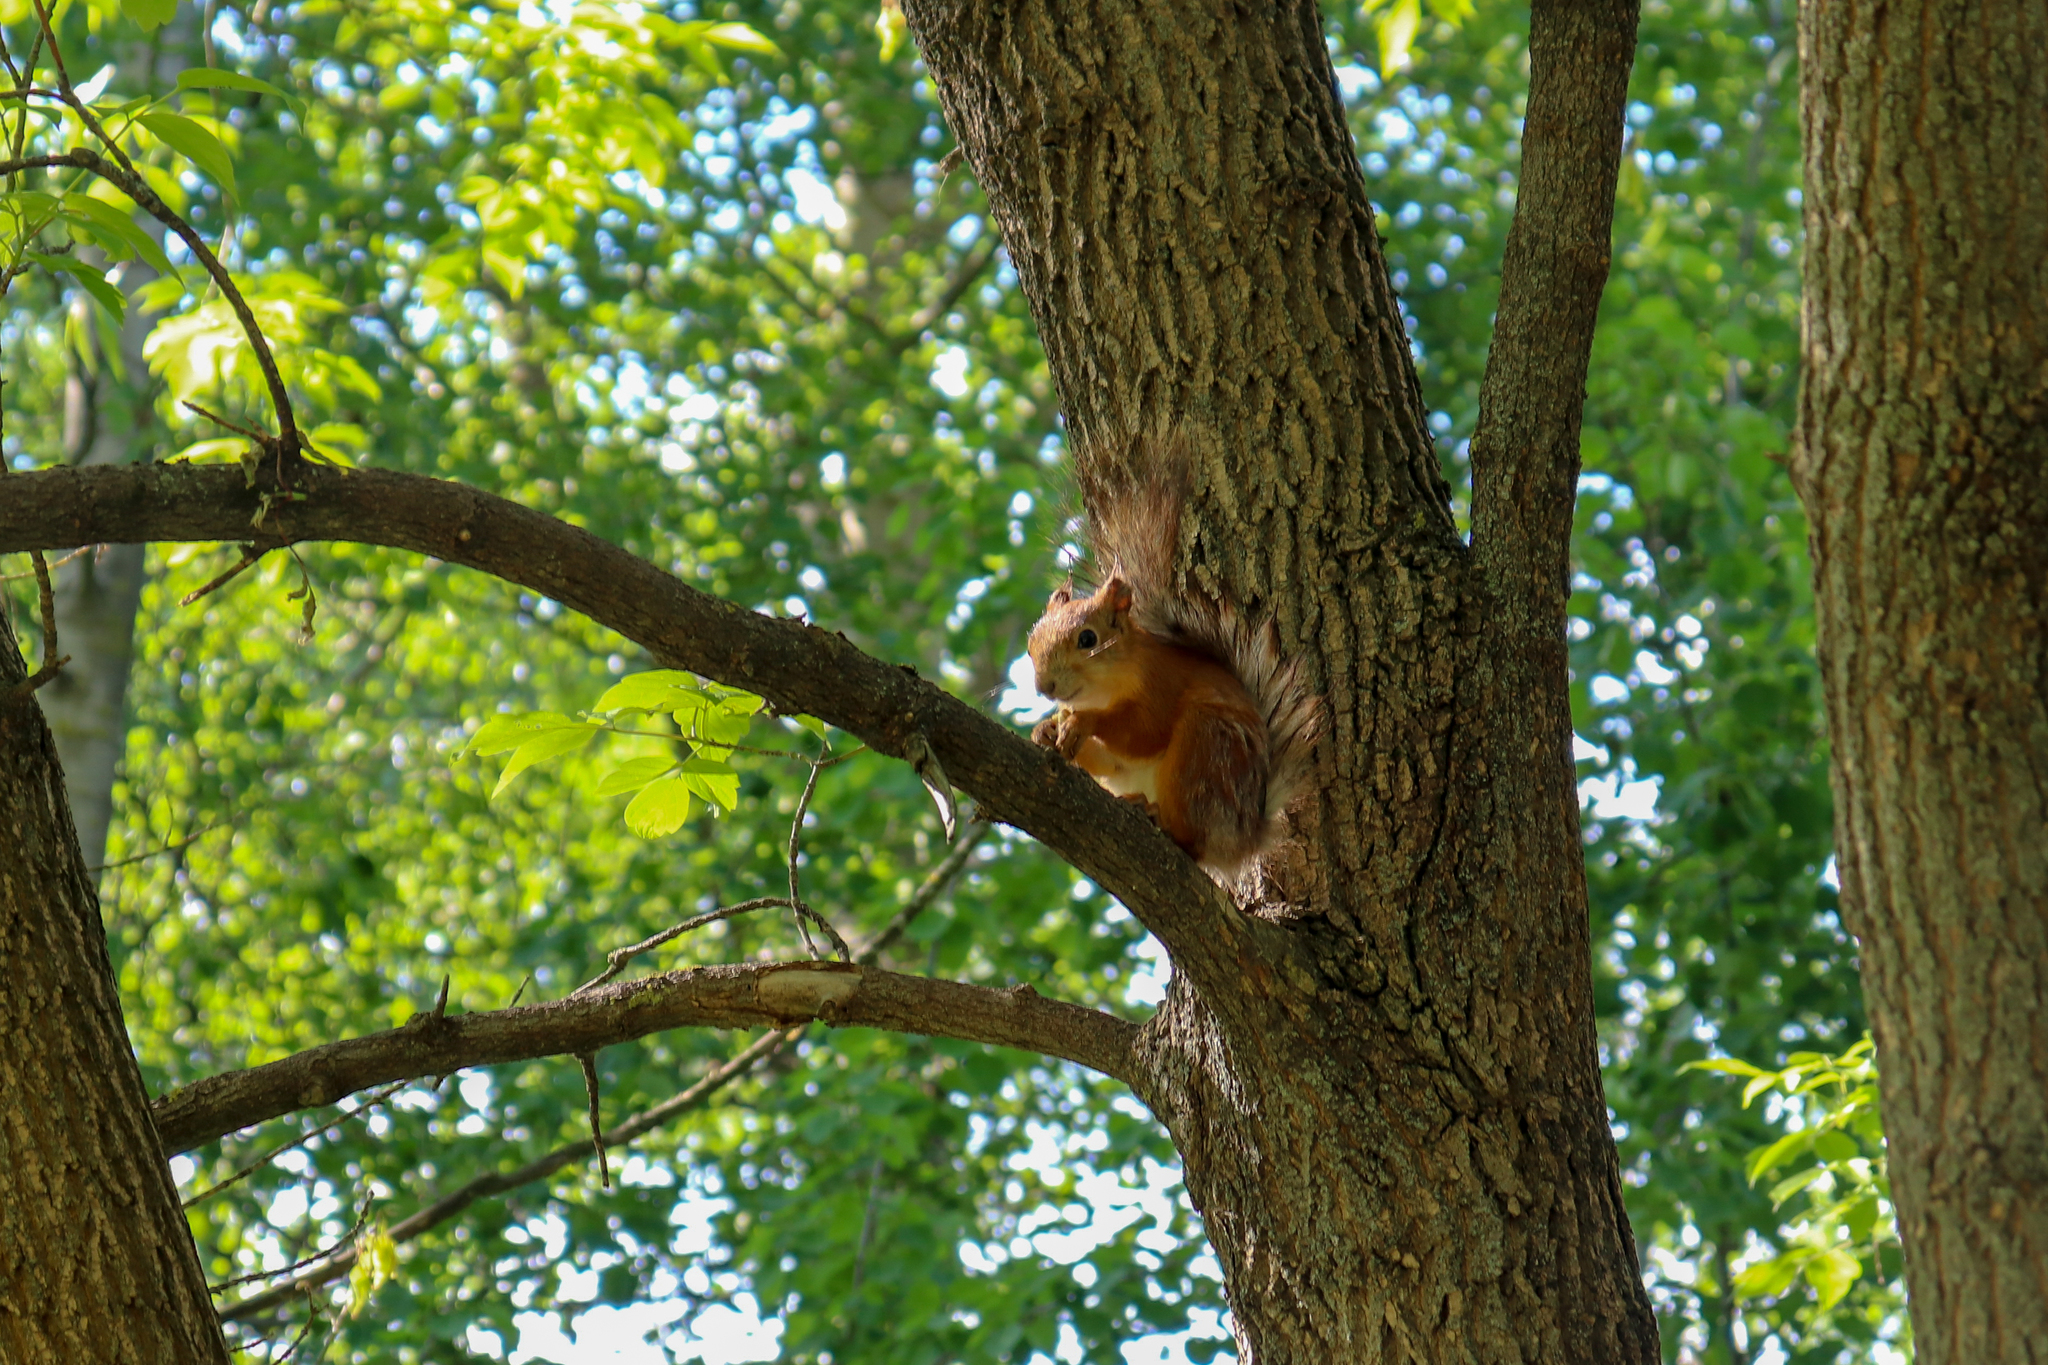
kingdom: Animalia
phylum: Chordata
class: Mammalia
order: Rodentia
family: Sciuridae
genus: Sciurus
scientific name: Sciurus vulgaris
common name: Eurasian red squirrel
